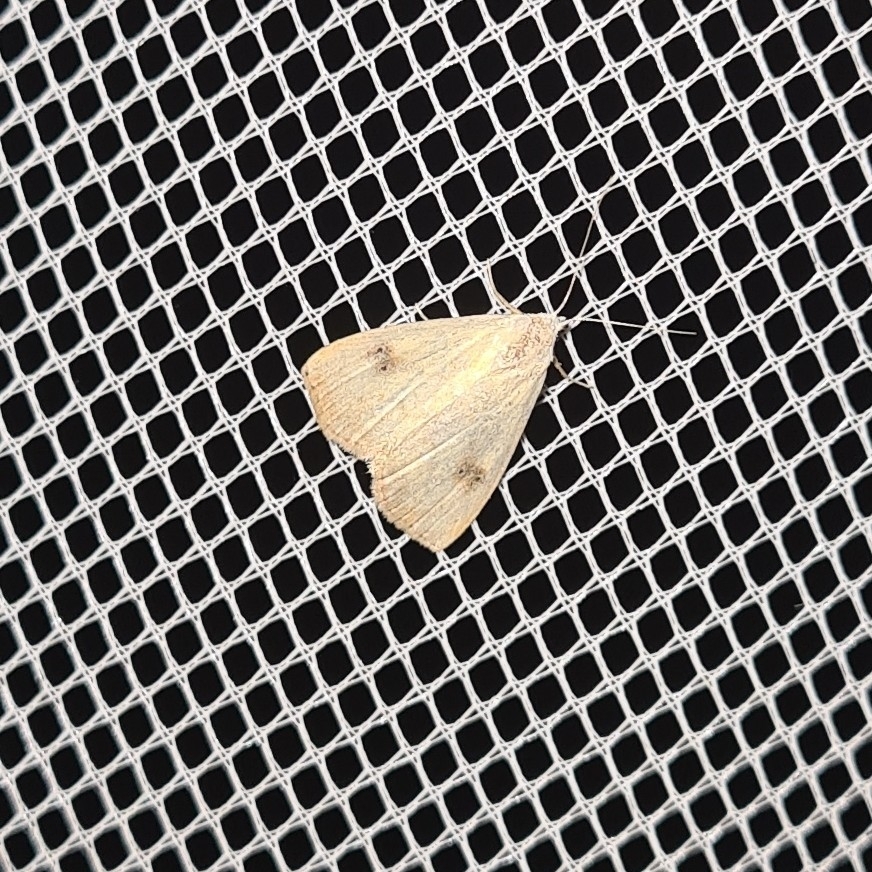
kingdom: Animalia
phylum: Arthropoda
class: Insecta
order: Lepidoptera
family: Erebidae
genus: Rivula
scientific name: Rivula sericealis
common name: Straw dot
